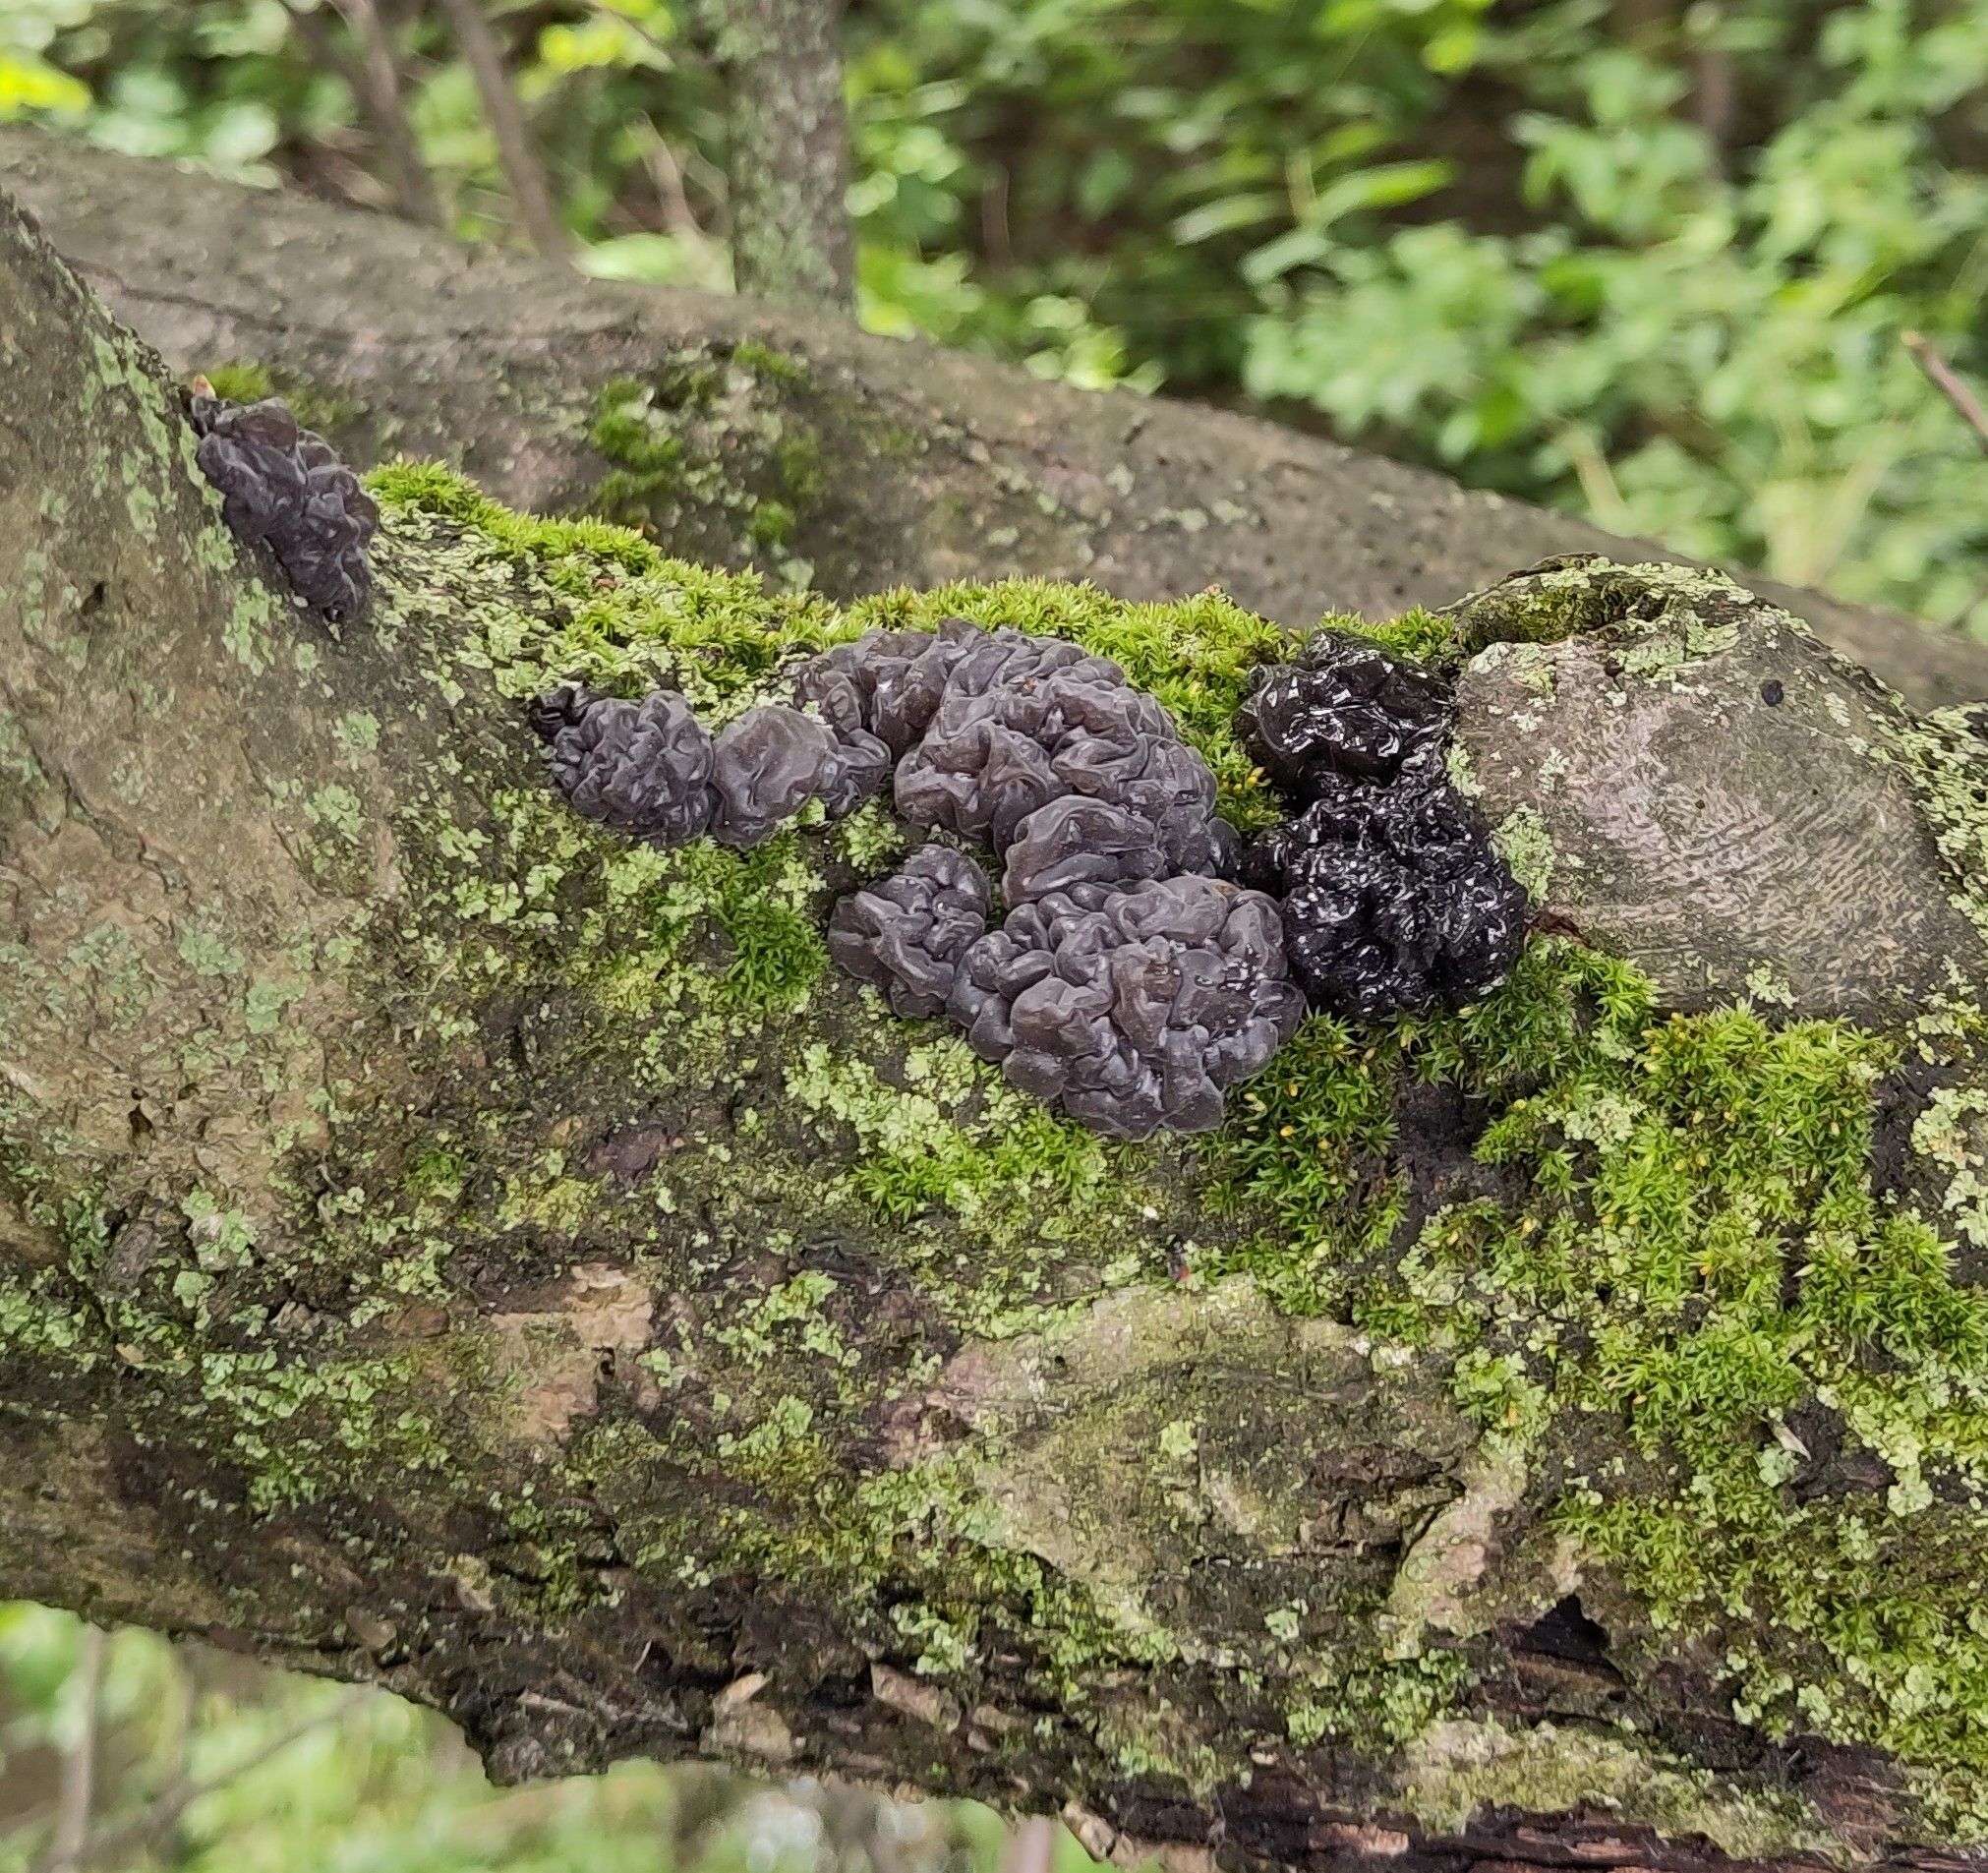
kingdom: Fungi
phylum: Basidiomycota
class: Agaricomycetes
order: Auriculariales
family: Auriculariaceae
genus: Exidia
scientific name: Exidia nigricans
